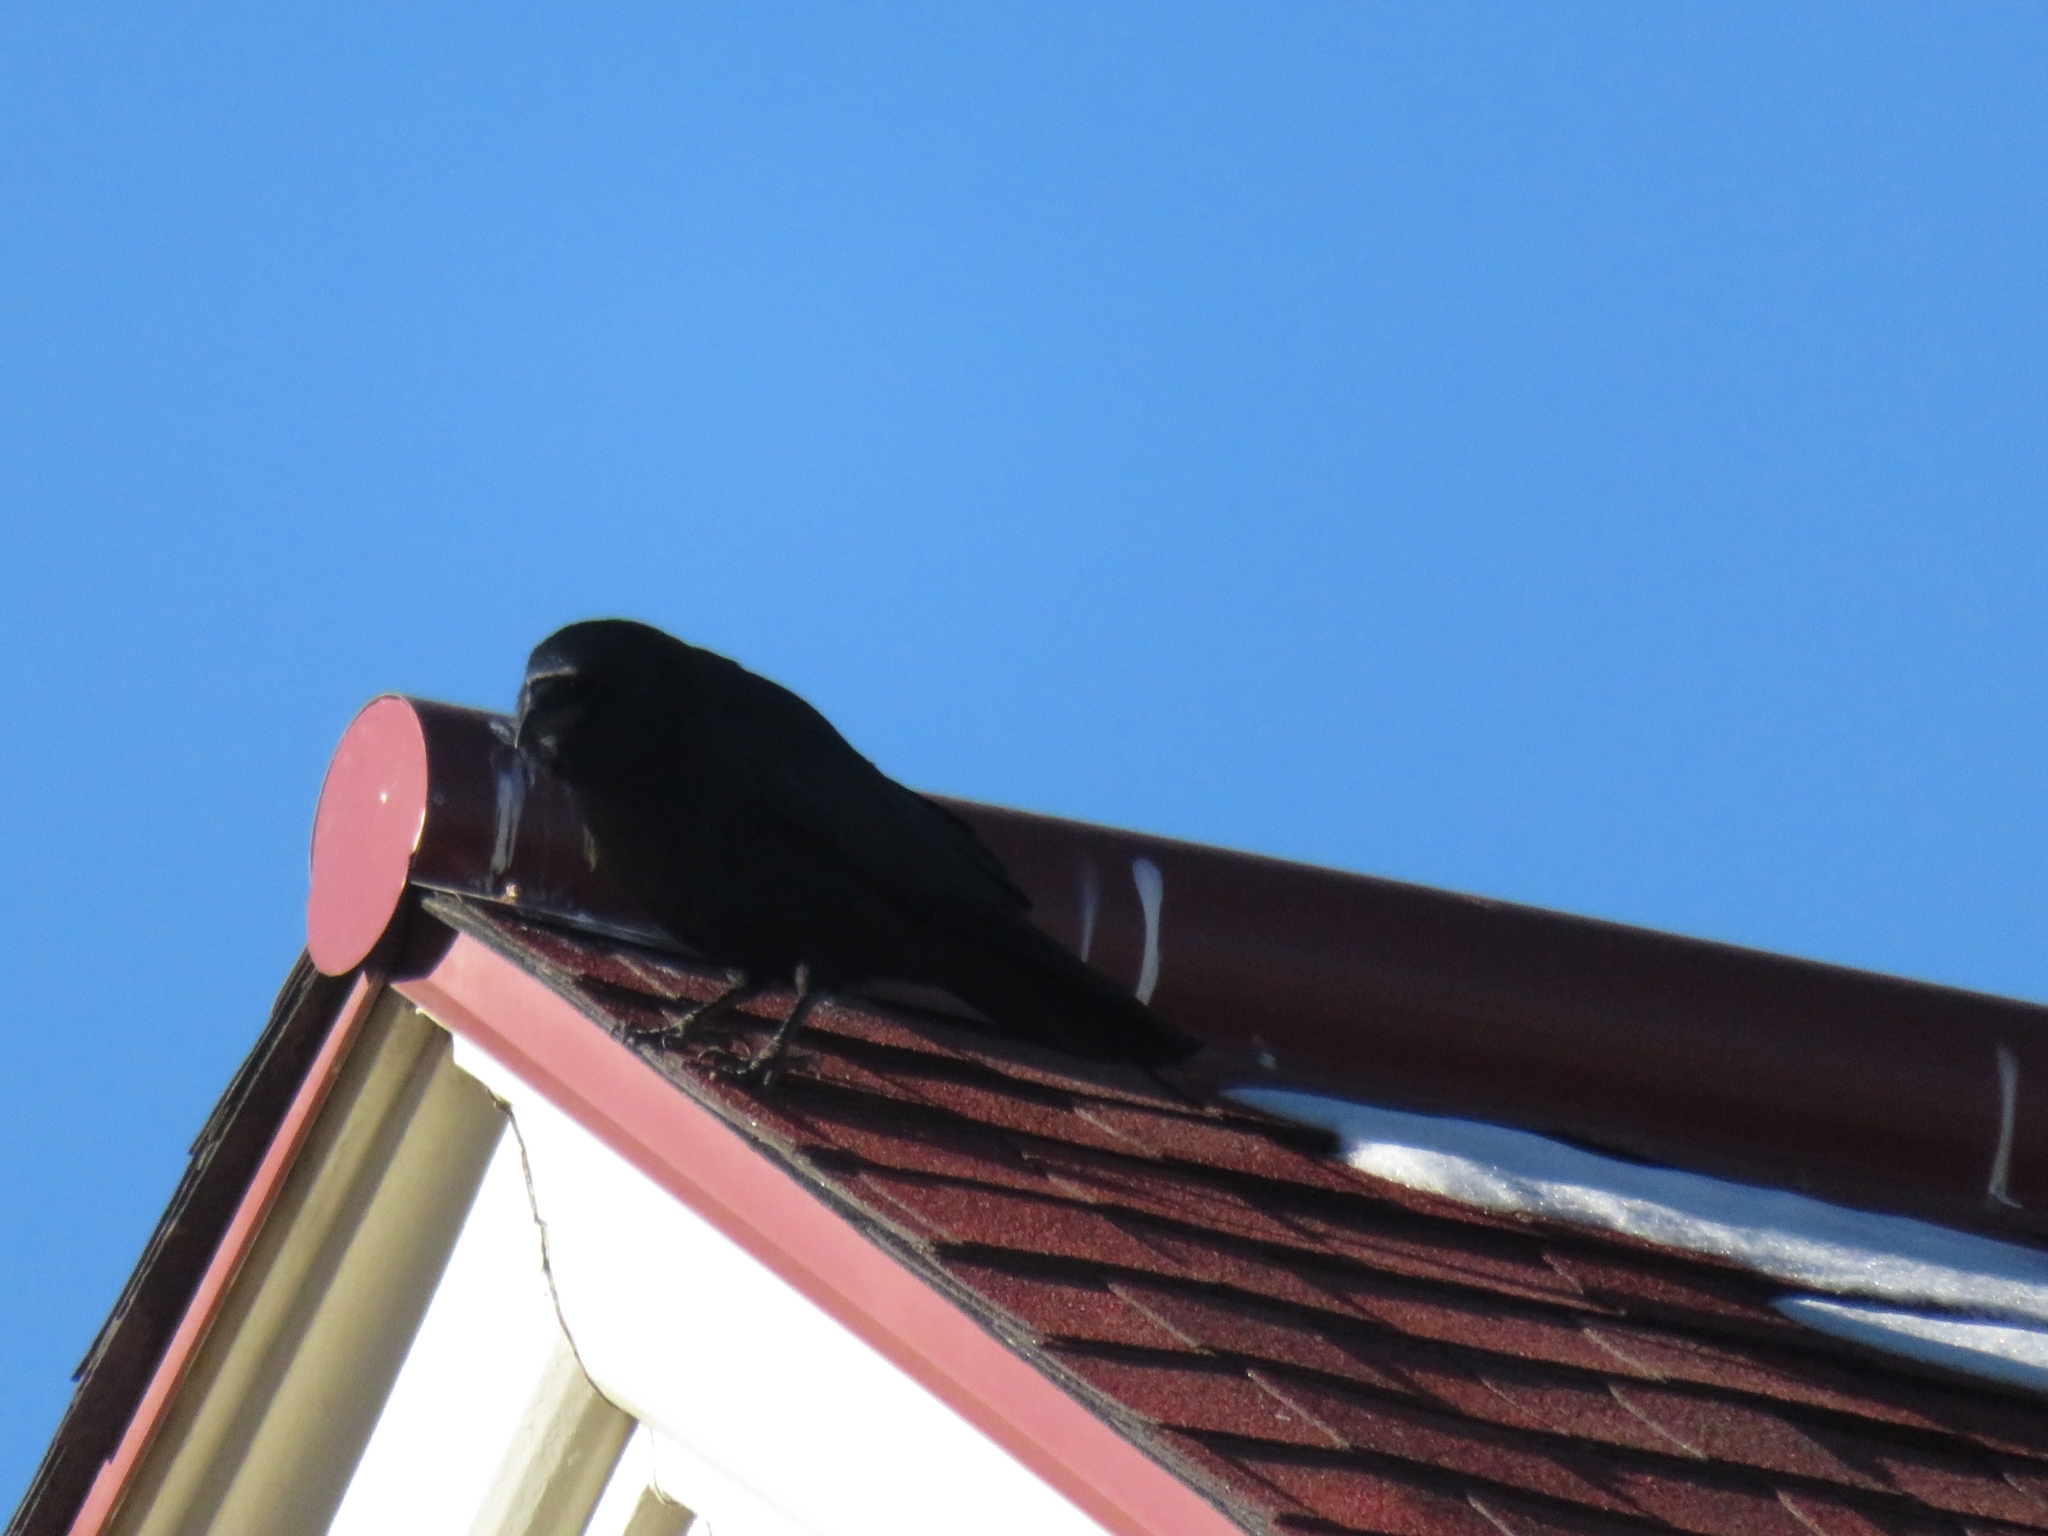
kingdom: Animalia
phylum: Chordata
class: Aves
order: Passeriformes
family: Corvidae
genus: Corvus
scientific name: Corvus brachyrhynchos
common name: American crow
